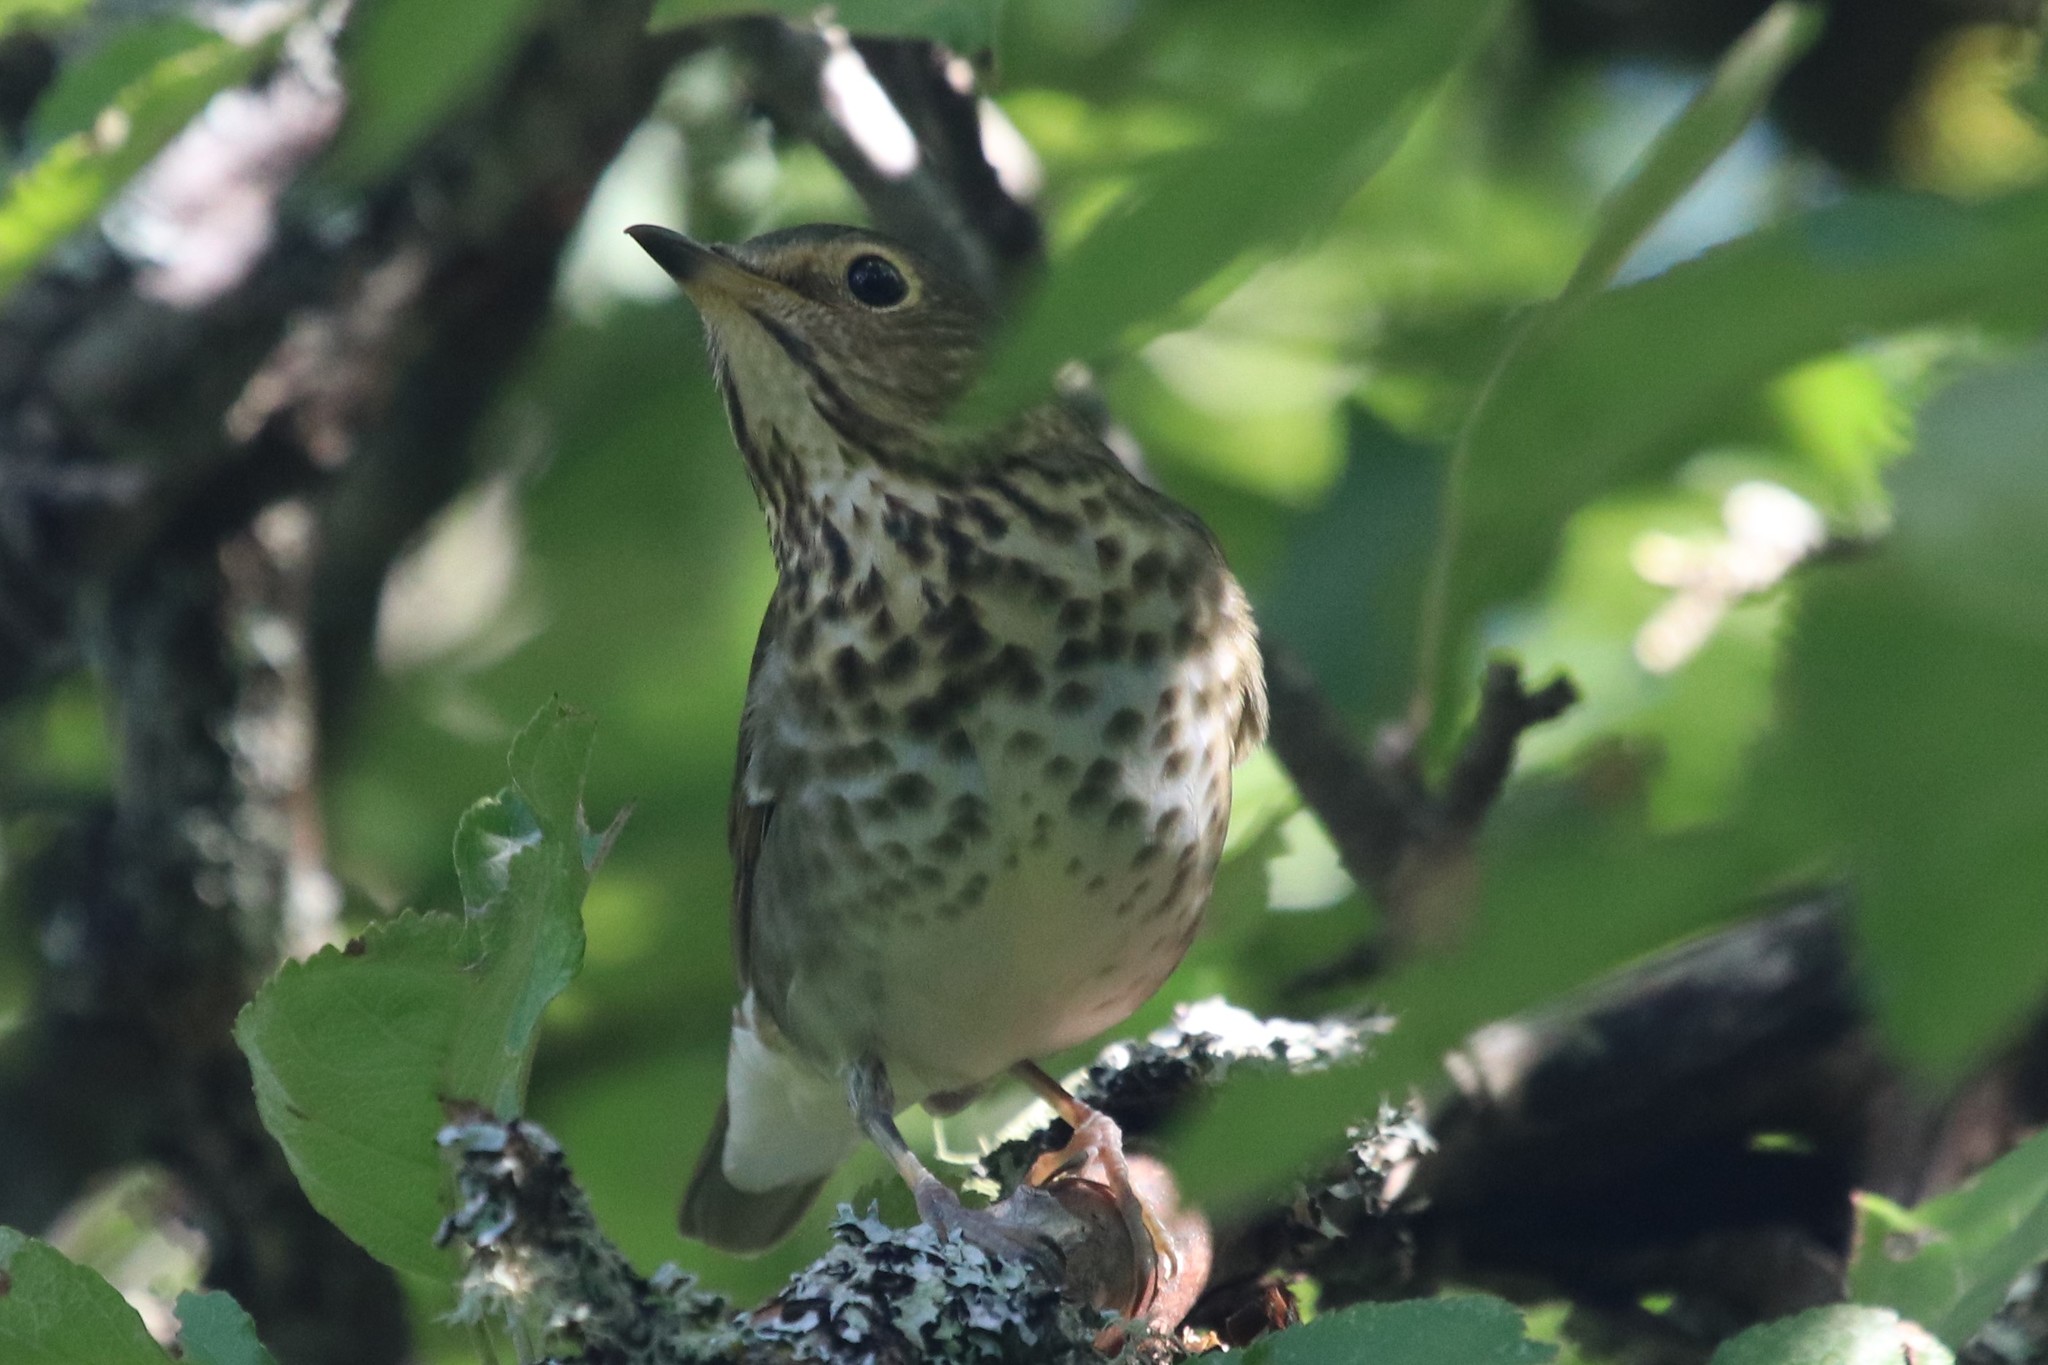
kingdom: Animalia
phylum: Chordata
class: Aves
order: Passeriformes
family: Turdidae
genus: Catharus
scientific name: Catharus ustulatus
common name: Swainson's thrush
